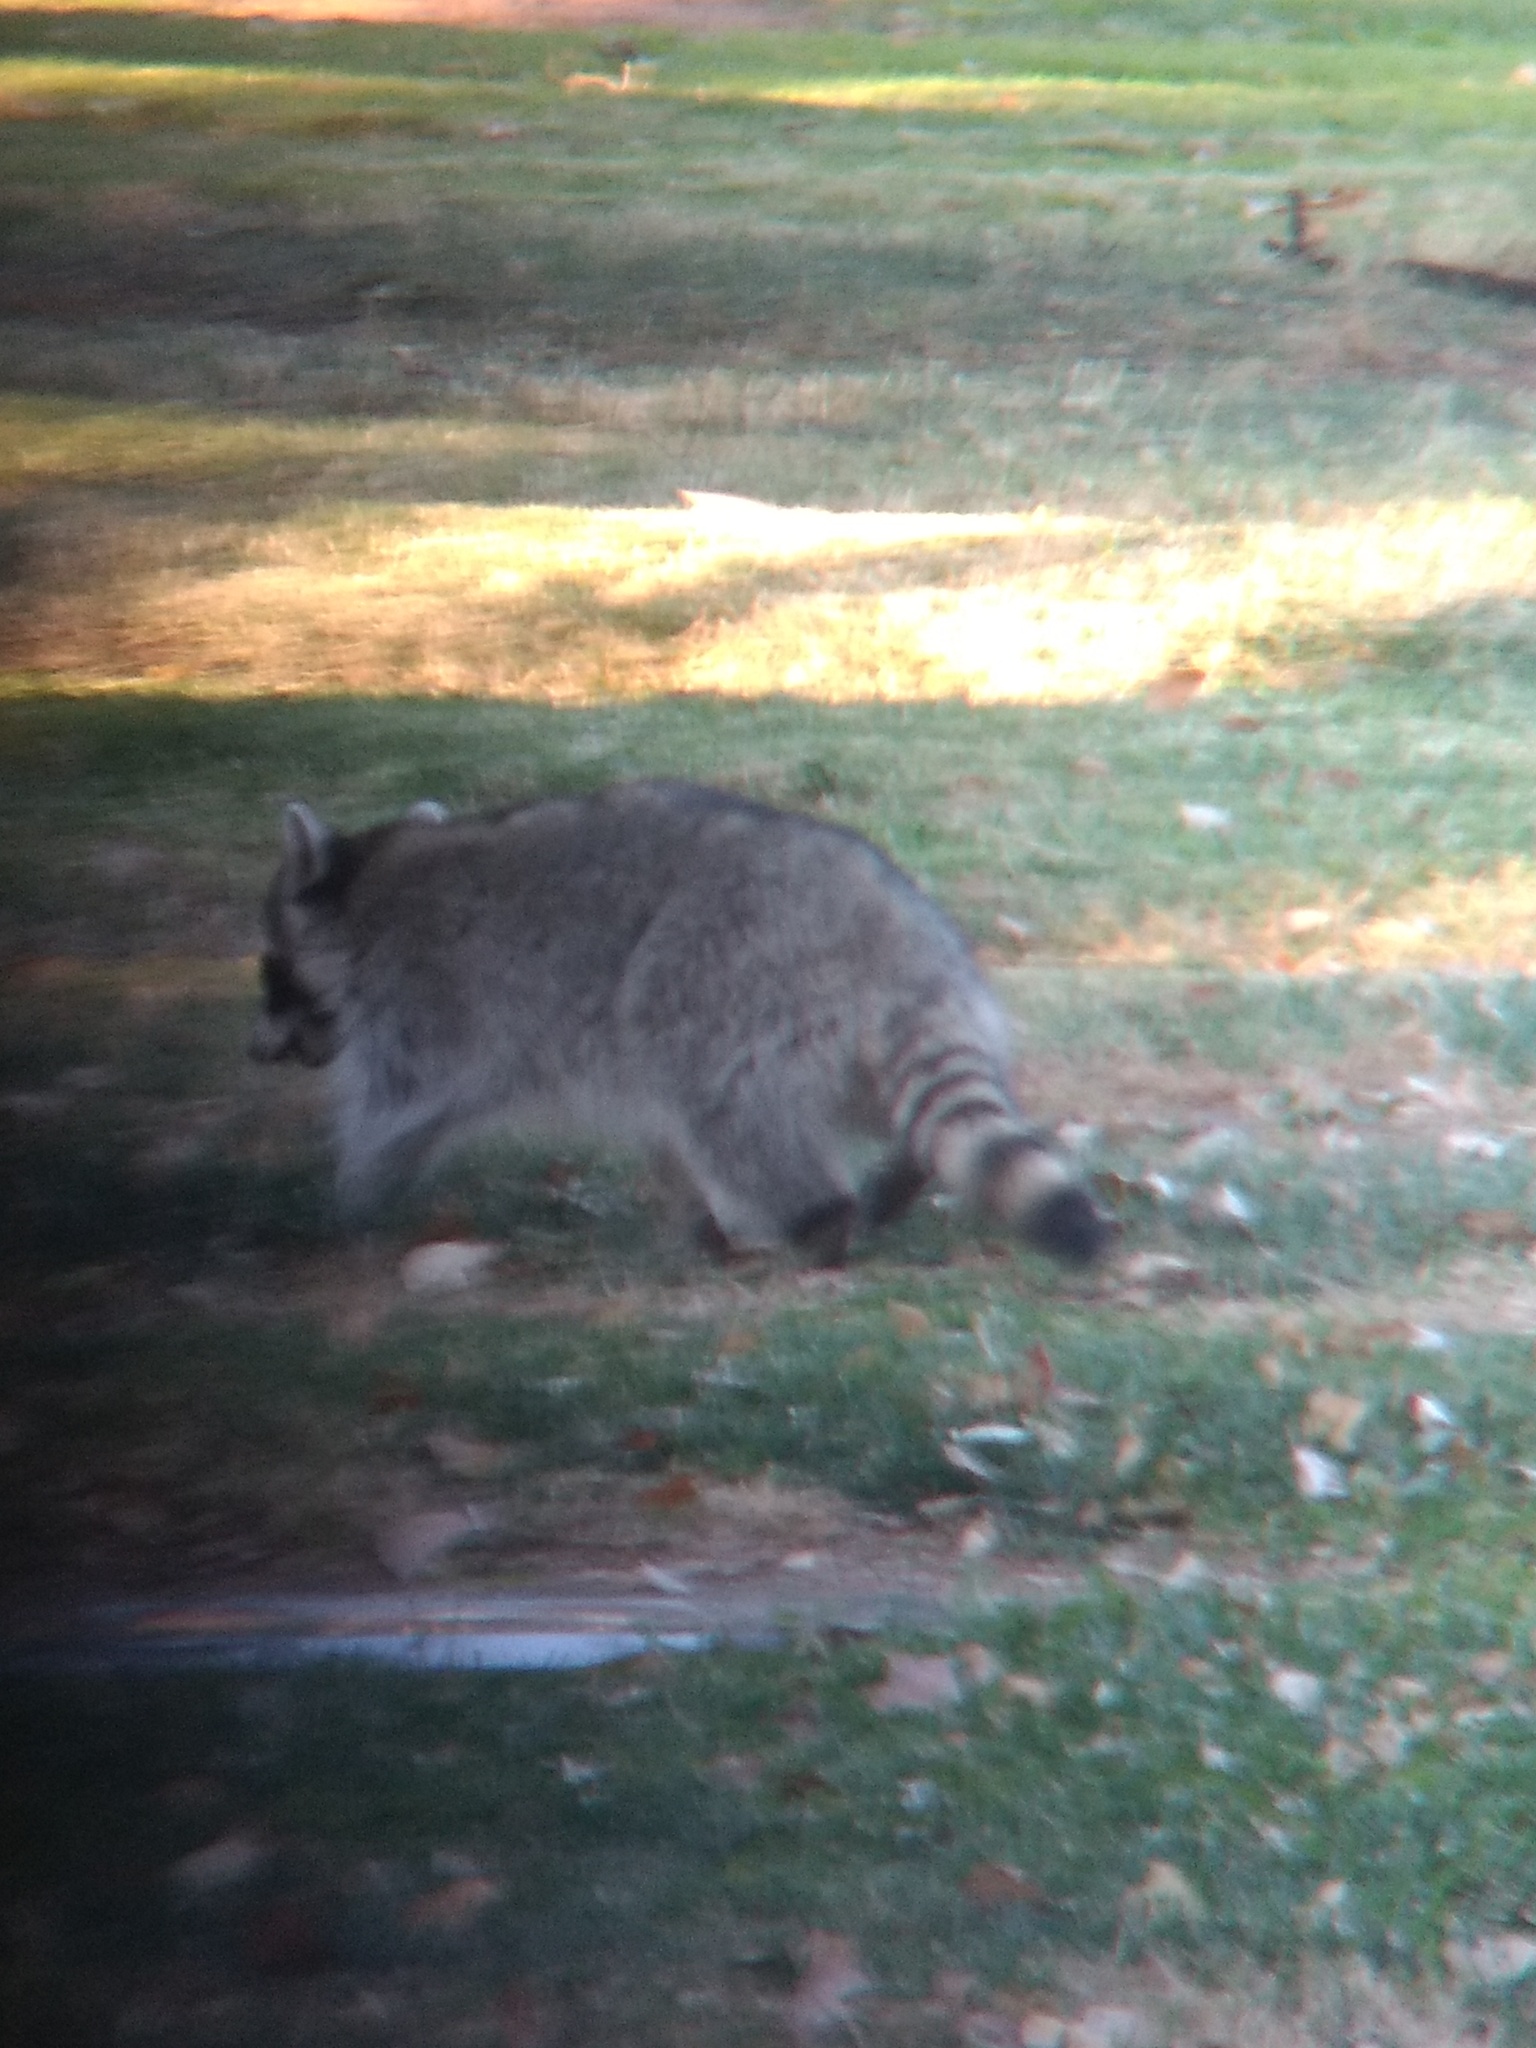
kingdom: Animalia
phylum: Chordata
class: Mammalia
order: Carnivora
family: Procyonidae
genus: Procyon
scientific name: Procyon lotor
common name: Raccoon
